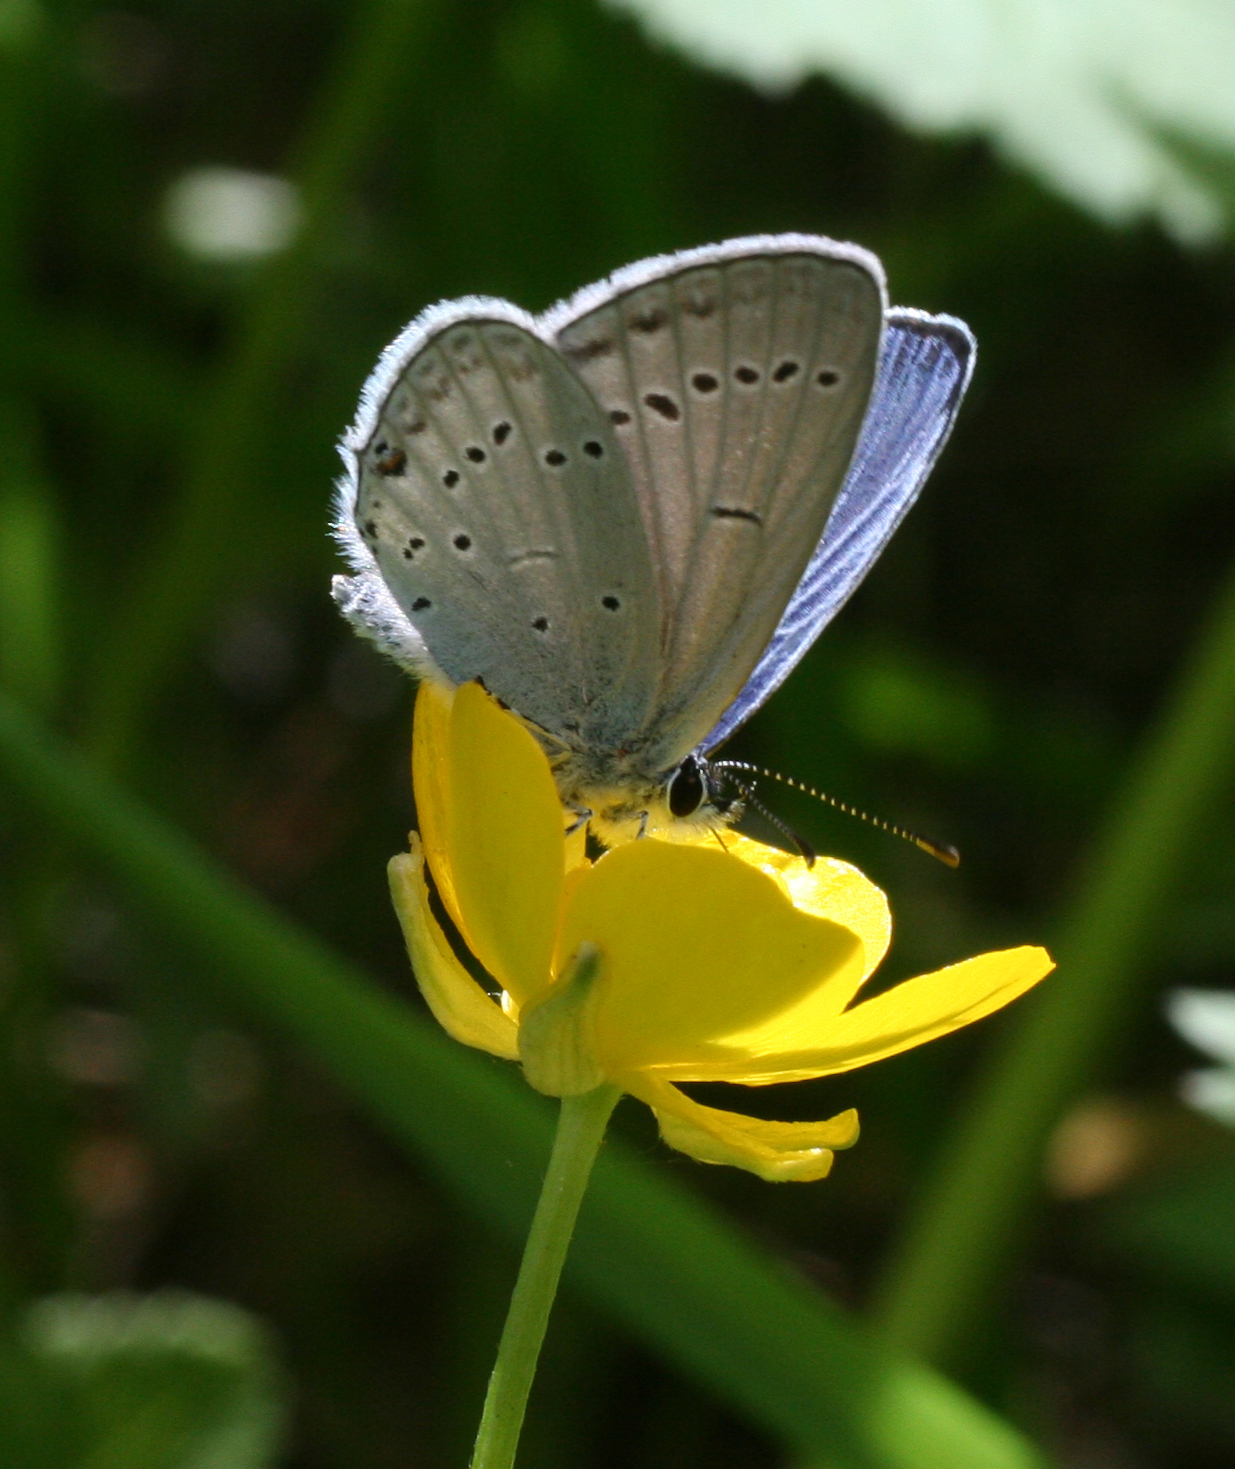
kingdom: Animalia
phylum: Arthropoda
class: Insecta
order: Lepidoptera
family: Lycaenidae
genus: Elkalyce
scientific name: Elkalyce alcetas
